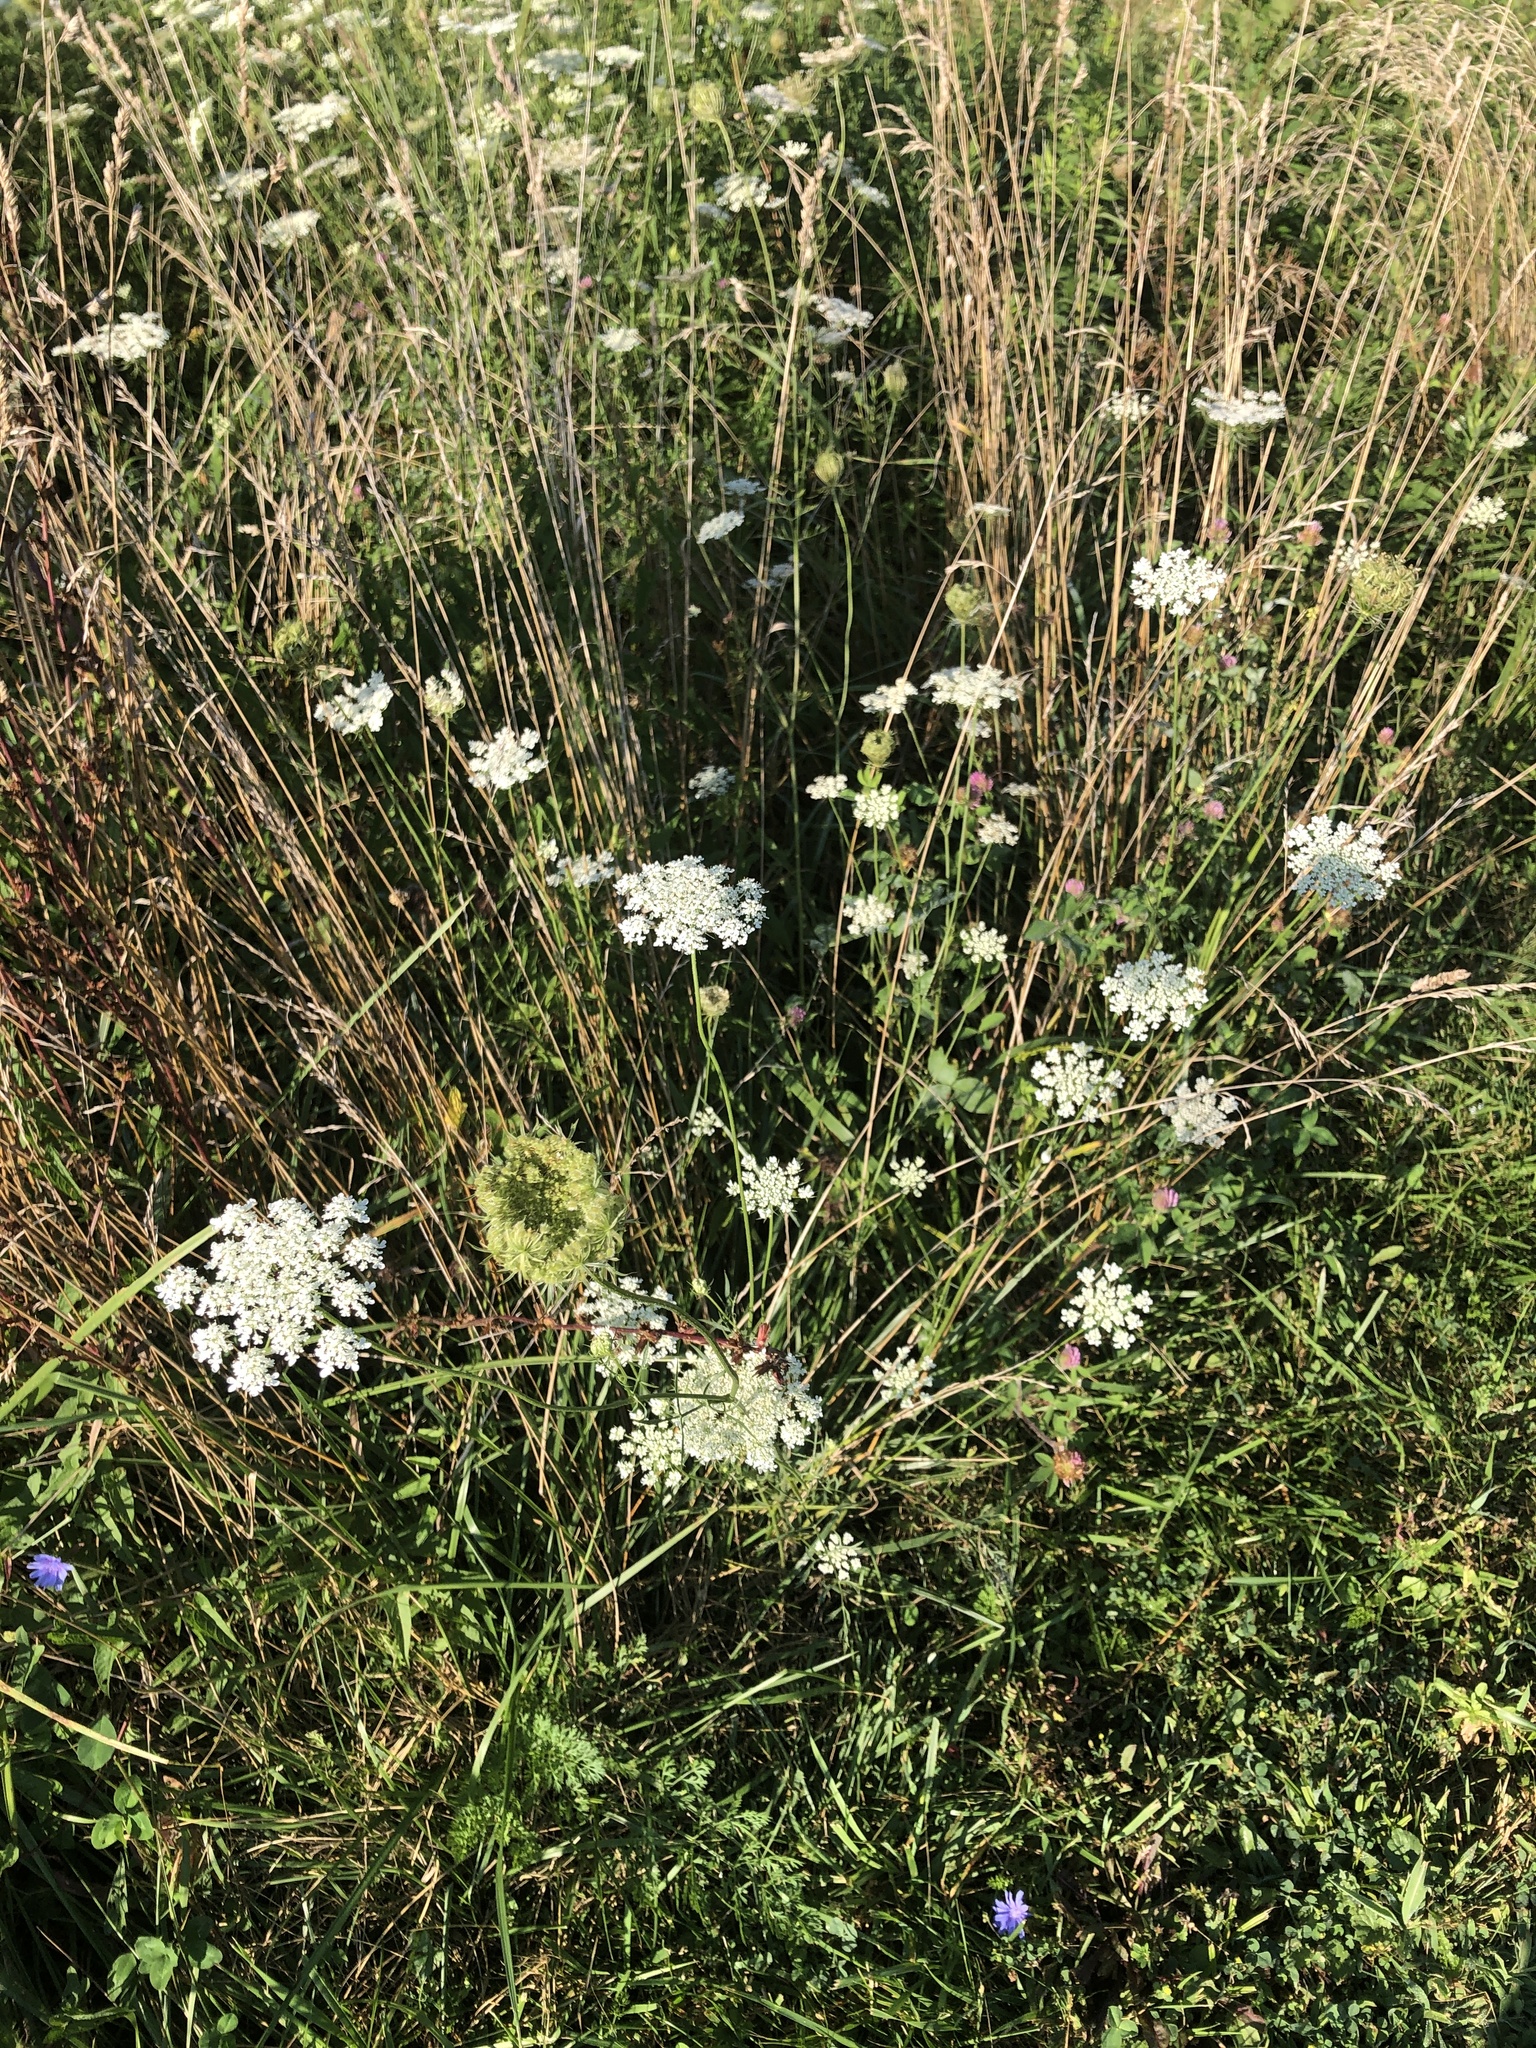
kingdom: Plantae
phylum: Tracheophyta
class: Magnoliopsida
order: Apiales
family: Apiaceae
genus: Daucus
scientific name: Daucus carota
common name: Wild carrot
